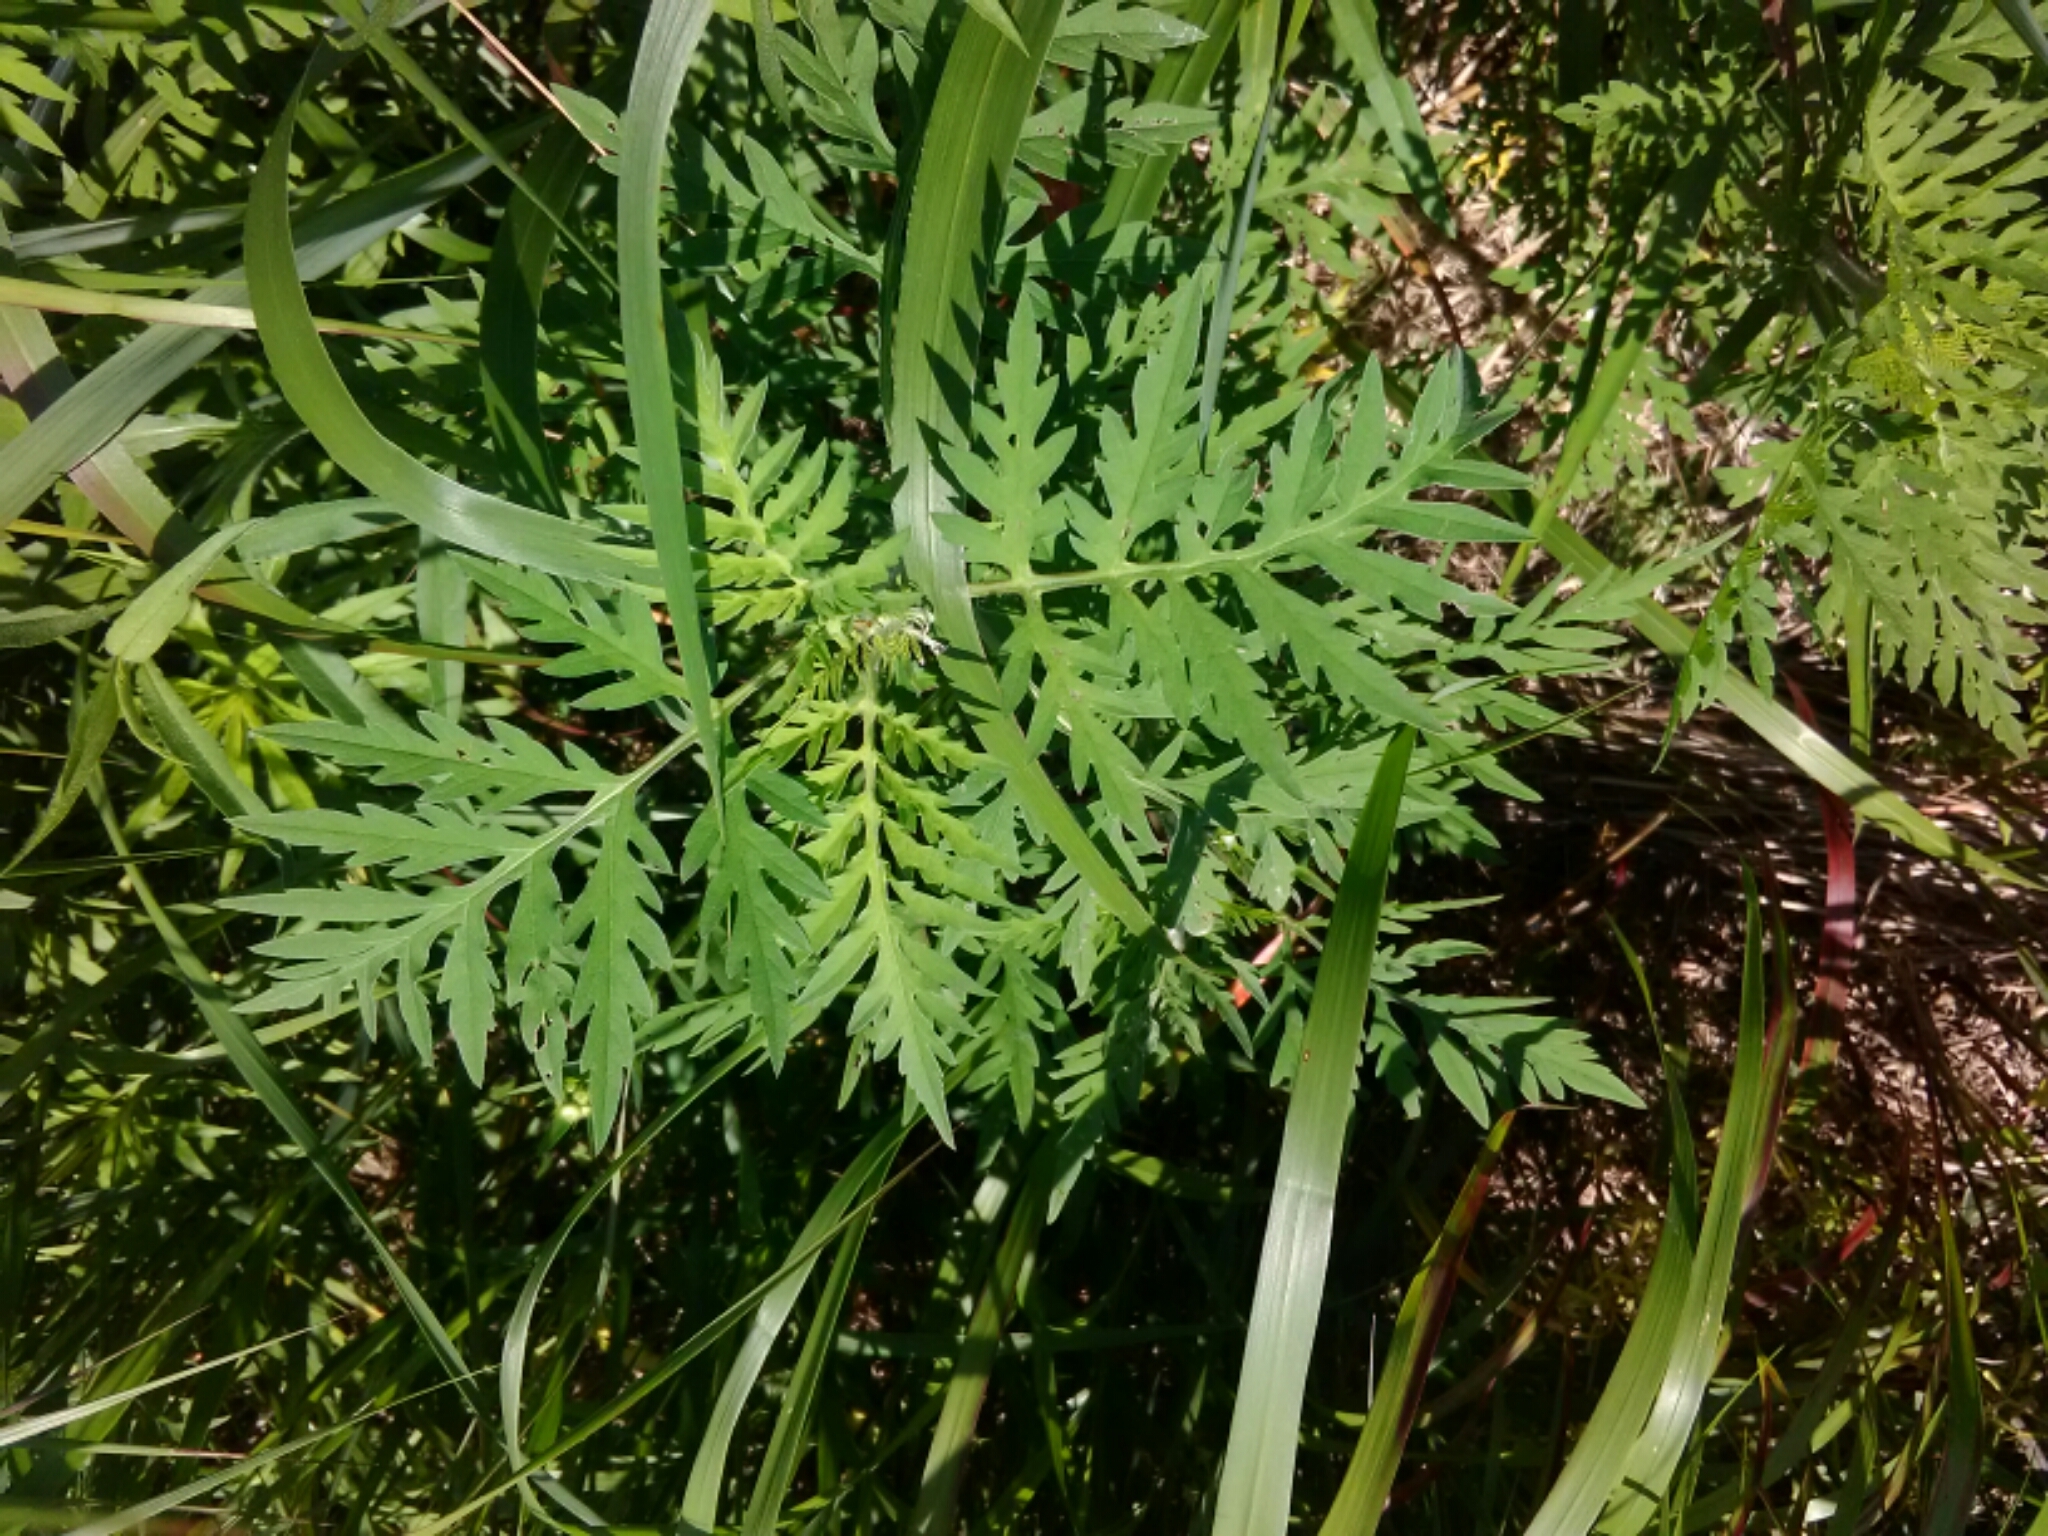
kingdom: Plantae
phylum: Tracheophyta
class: Magnoliopsida
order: Asterales
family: Asteraceae
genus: Ambrosia
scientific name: Ambrosia artemisiifolia
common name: Annual ragweed
